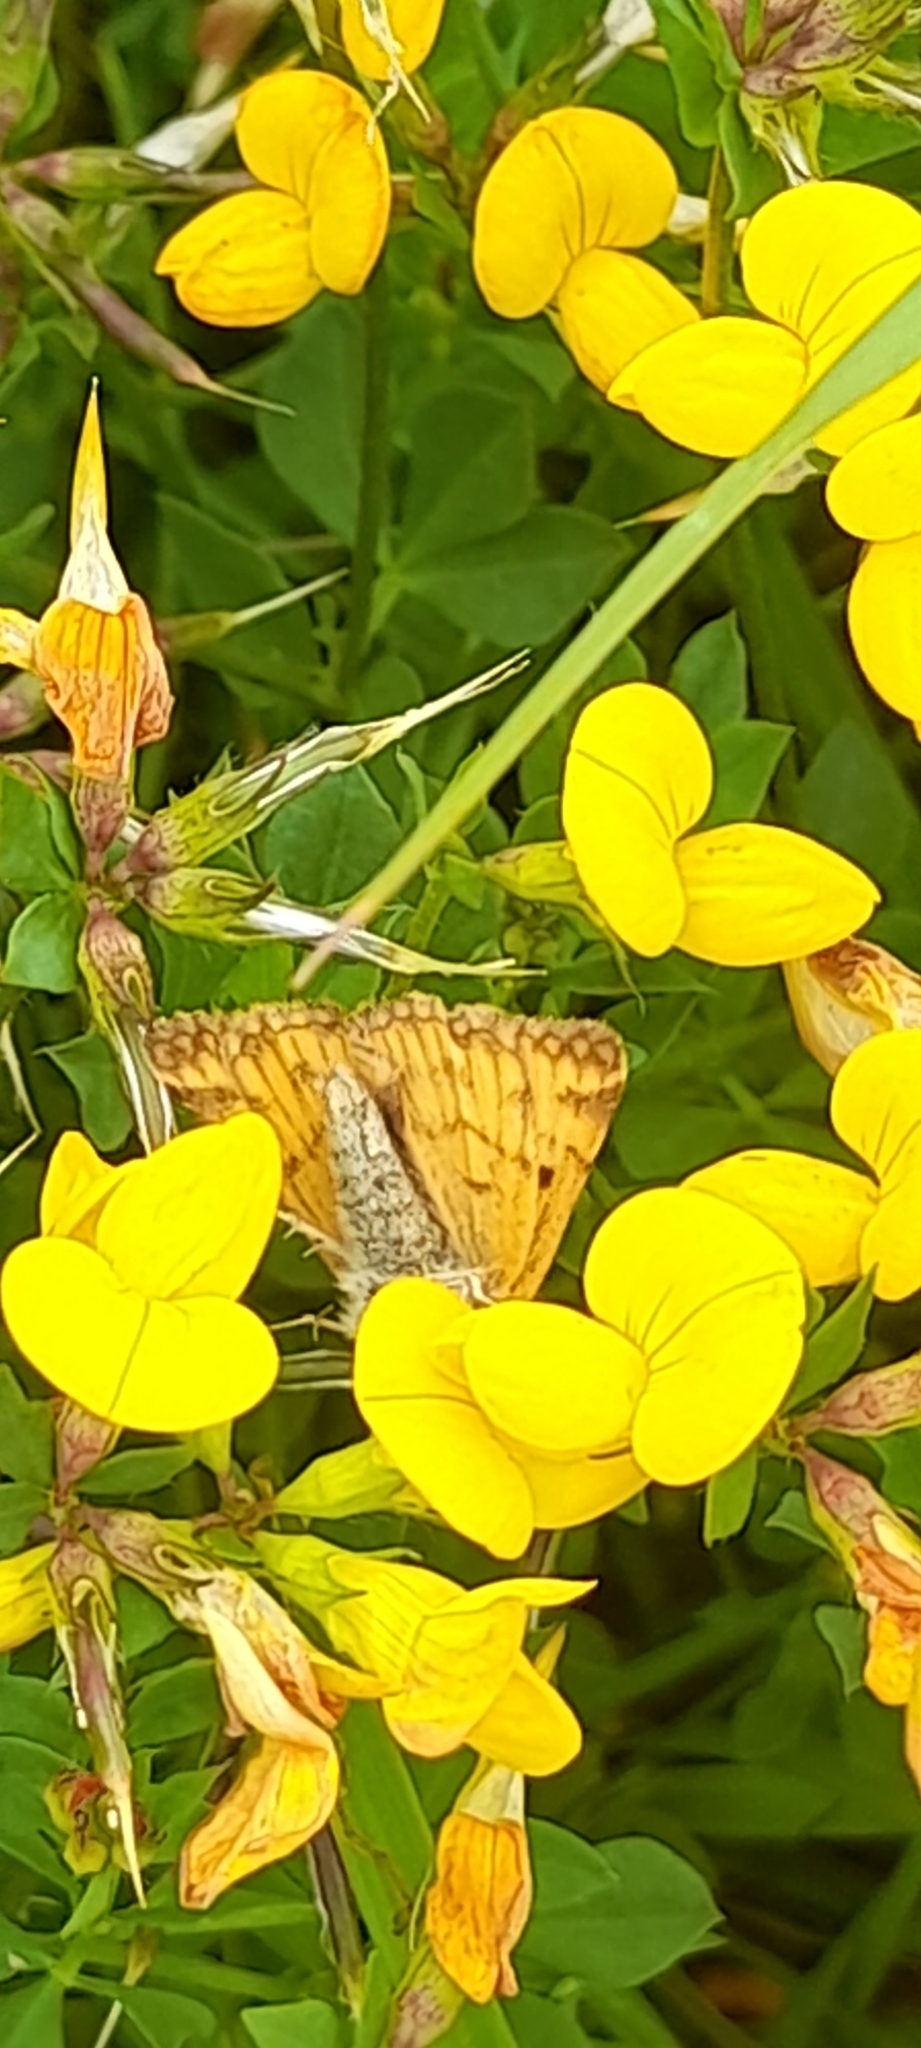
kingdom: Animalia
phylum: Arthropoda
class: Insecta
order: Lepidoptera
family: Erebidae
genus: Euclidia
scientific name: Euclidia glyphica
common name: Burnet companion
